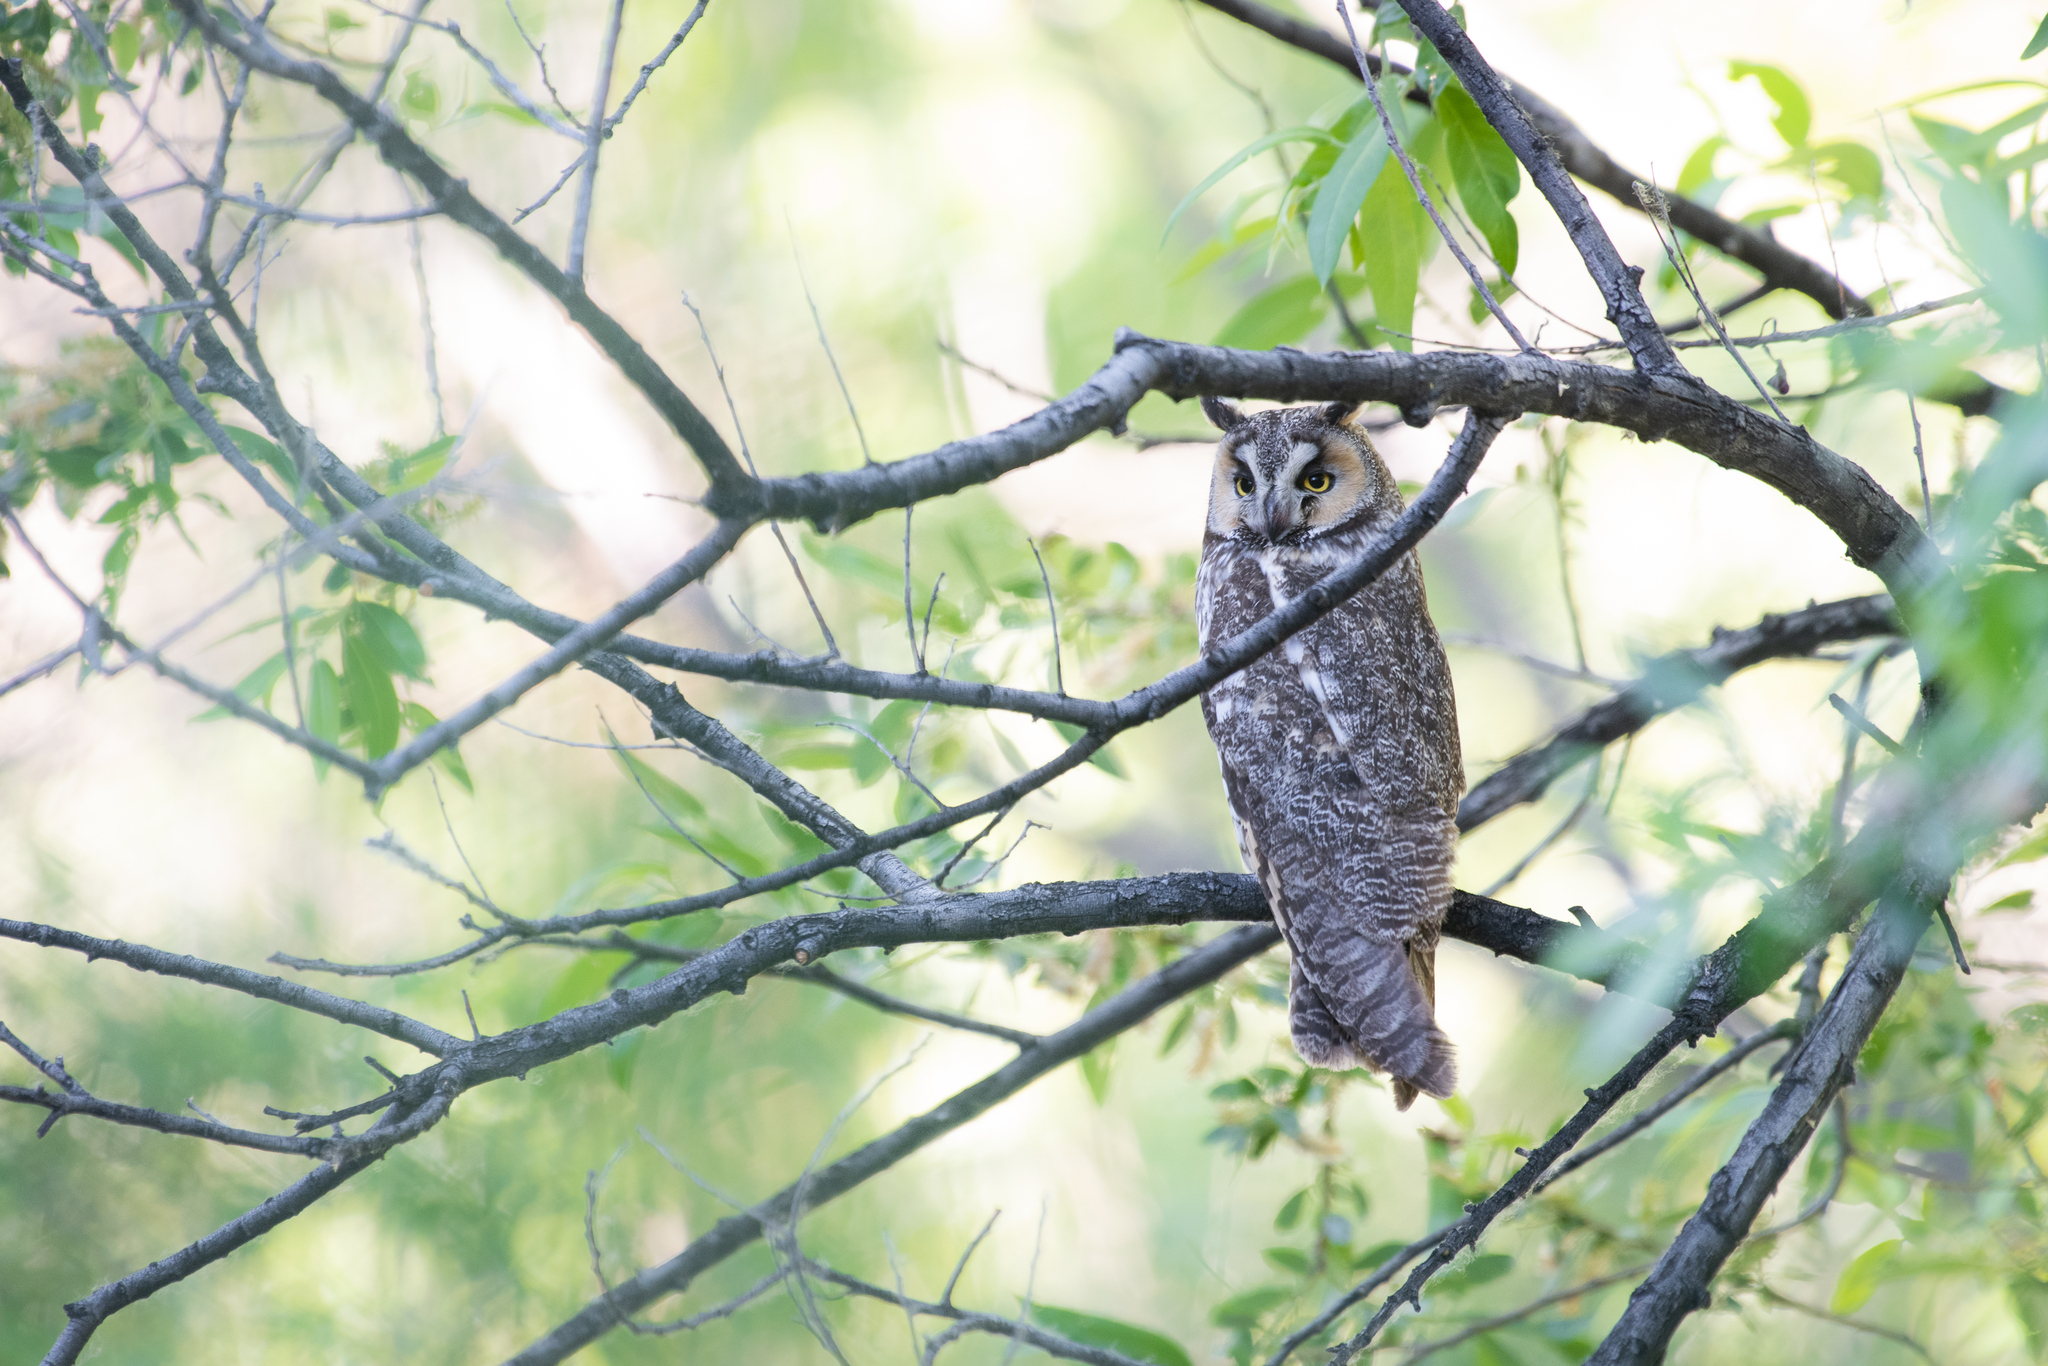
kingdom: Animalia
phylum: Chordata
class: Aves
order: Strigiformes
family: Strigidae
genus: Asio
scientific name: Asio otus
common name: Long-eared owl
